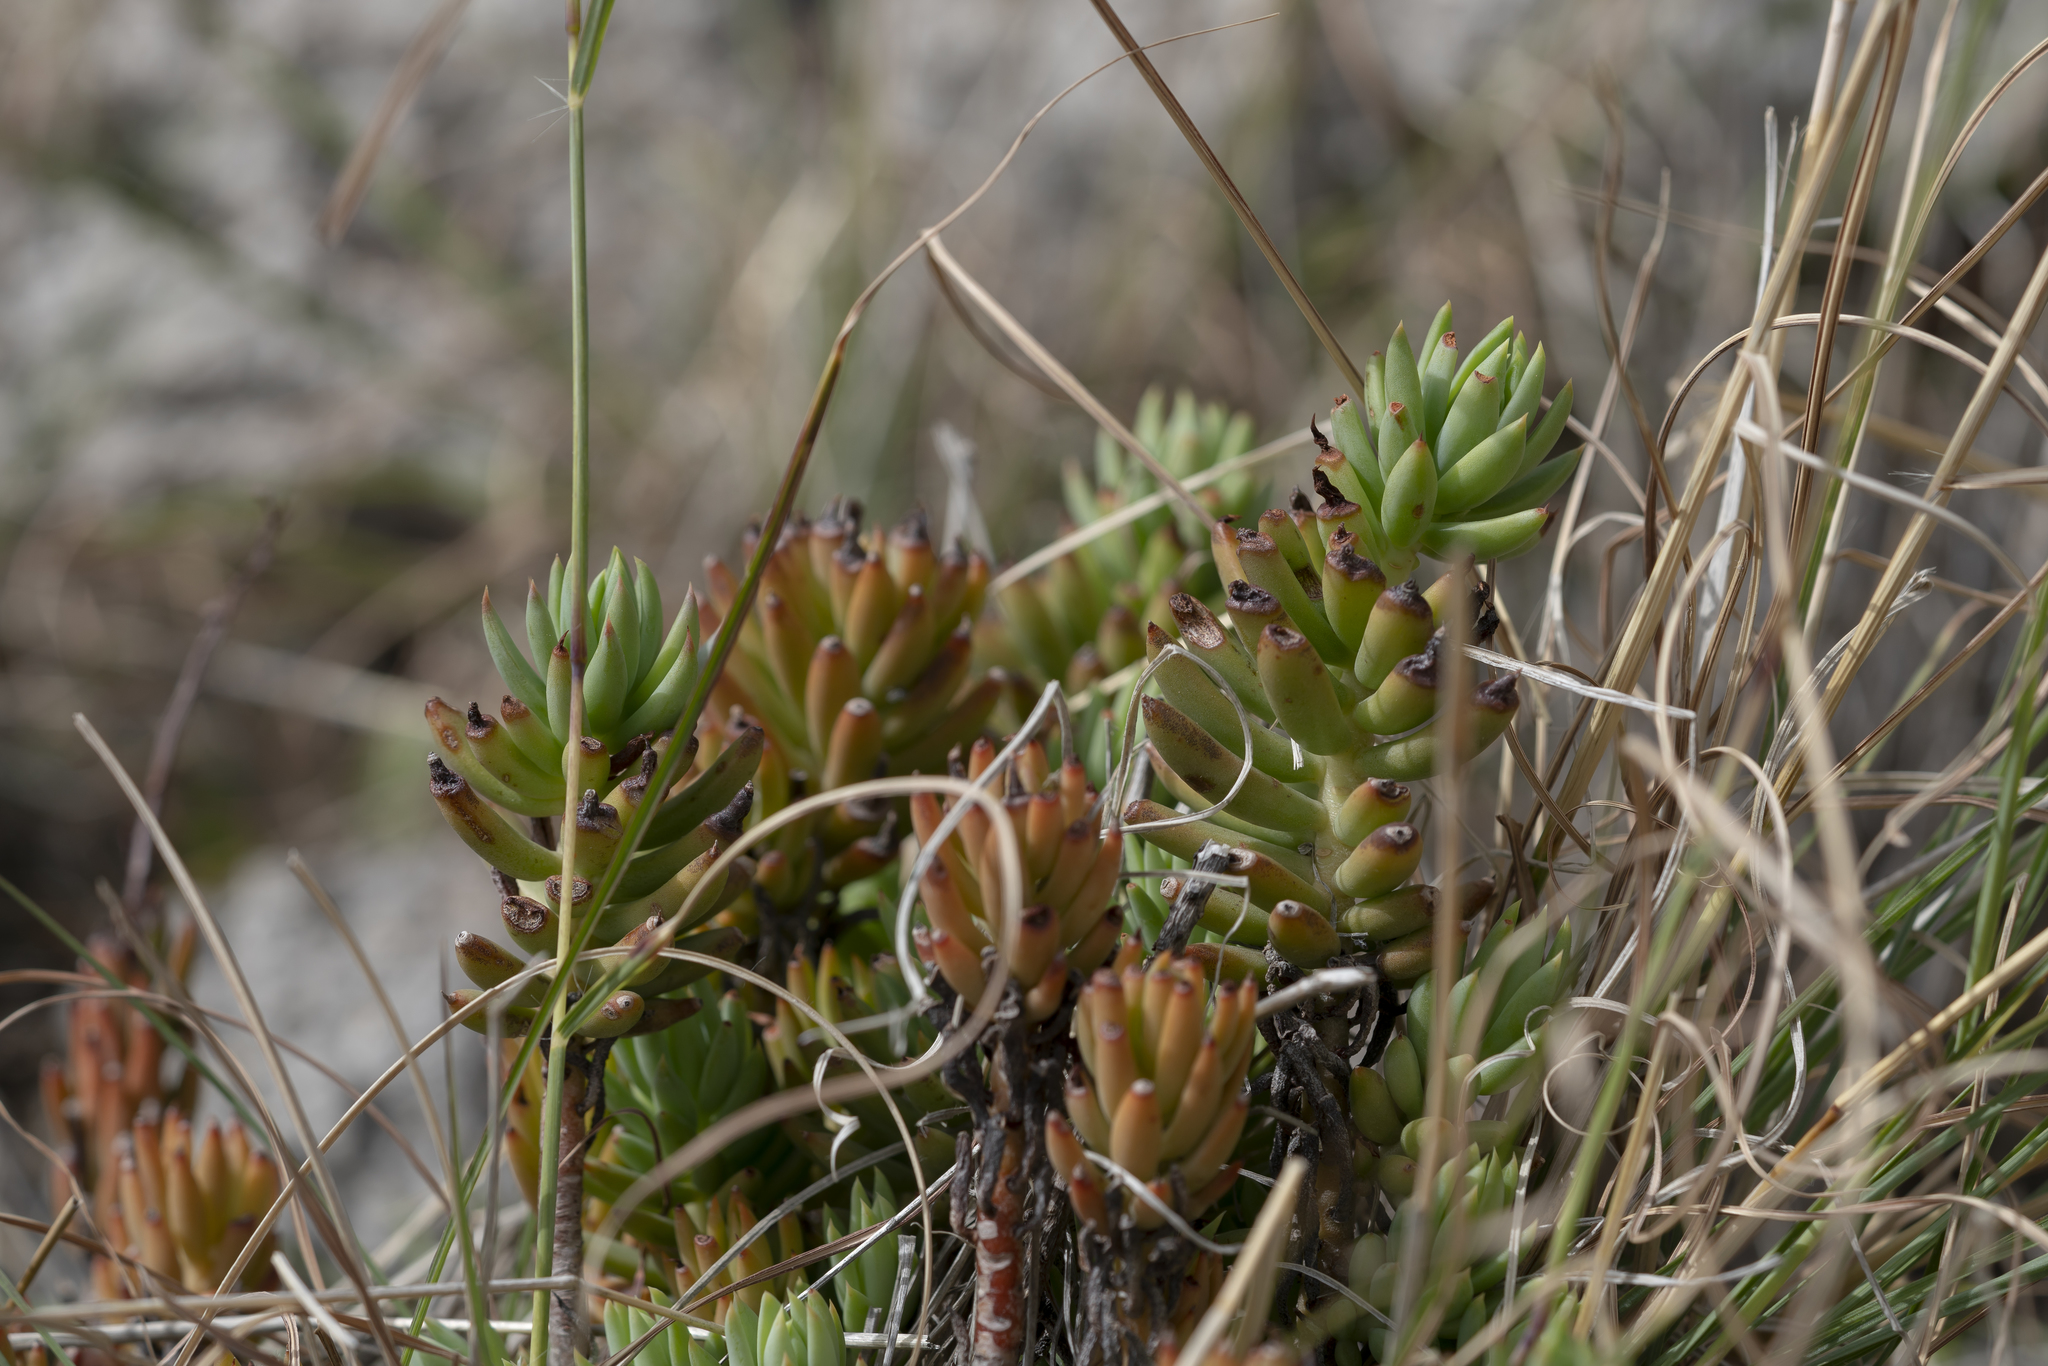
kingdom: Plantae
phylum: Tracheophyta
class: Magnoliopsida
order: Saxifragales
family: Crassulaceae
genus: Petrosedum
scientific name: Petrosedum sediforme
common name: Pale stonecrop
